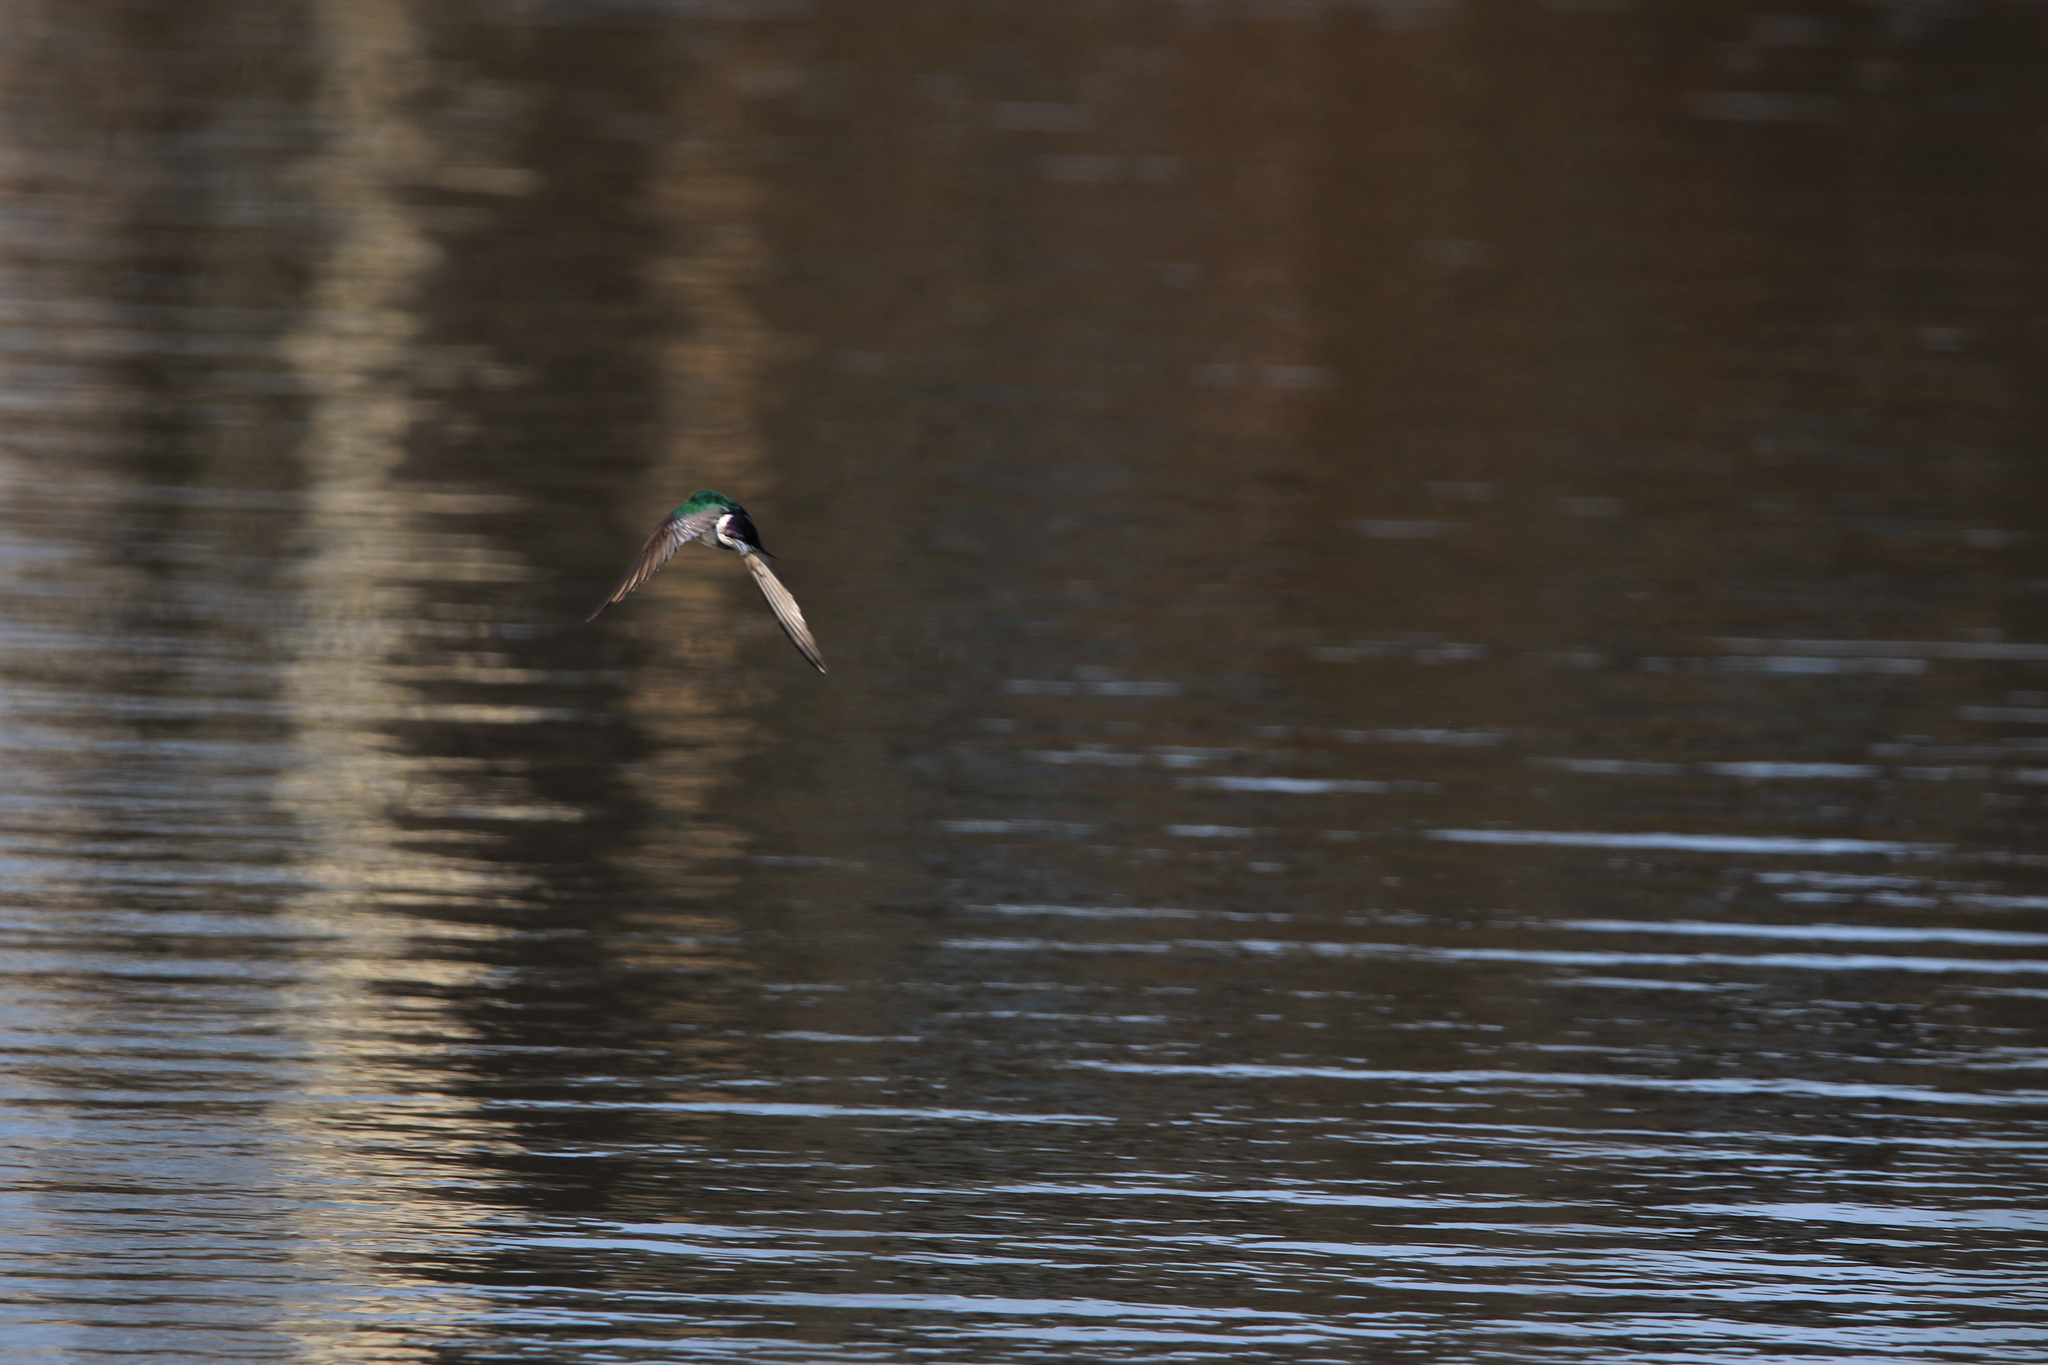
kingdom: Animalia
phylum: Chordata
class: Aves
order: Passeriformes
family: Hirundinidae
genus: Tachycineta
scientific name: Tachycineta thalassina
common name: Violet-green swallow
